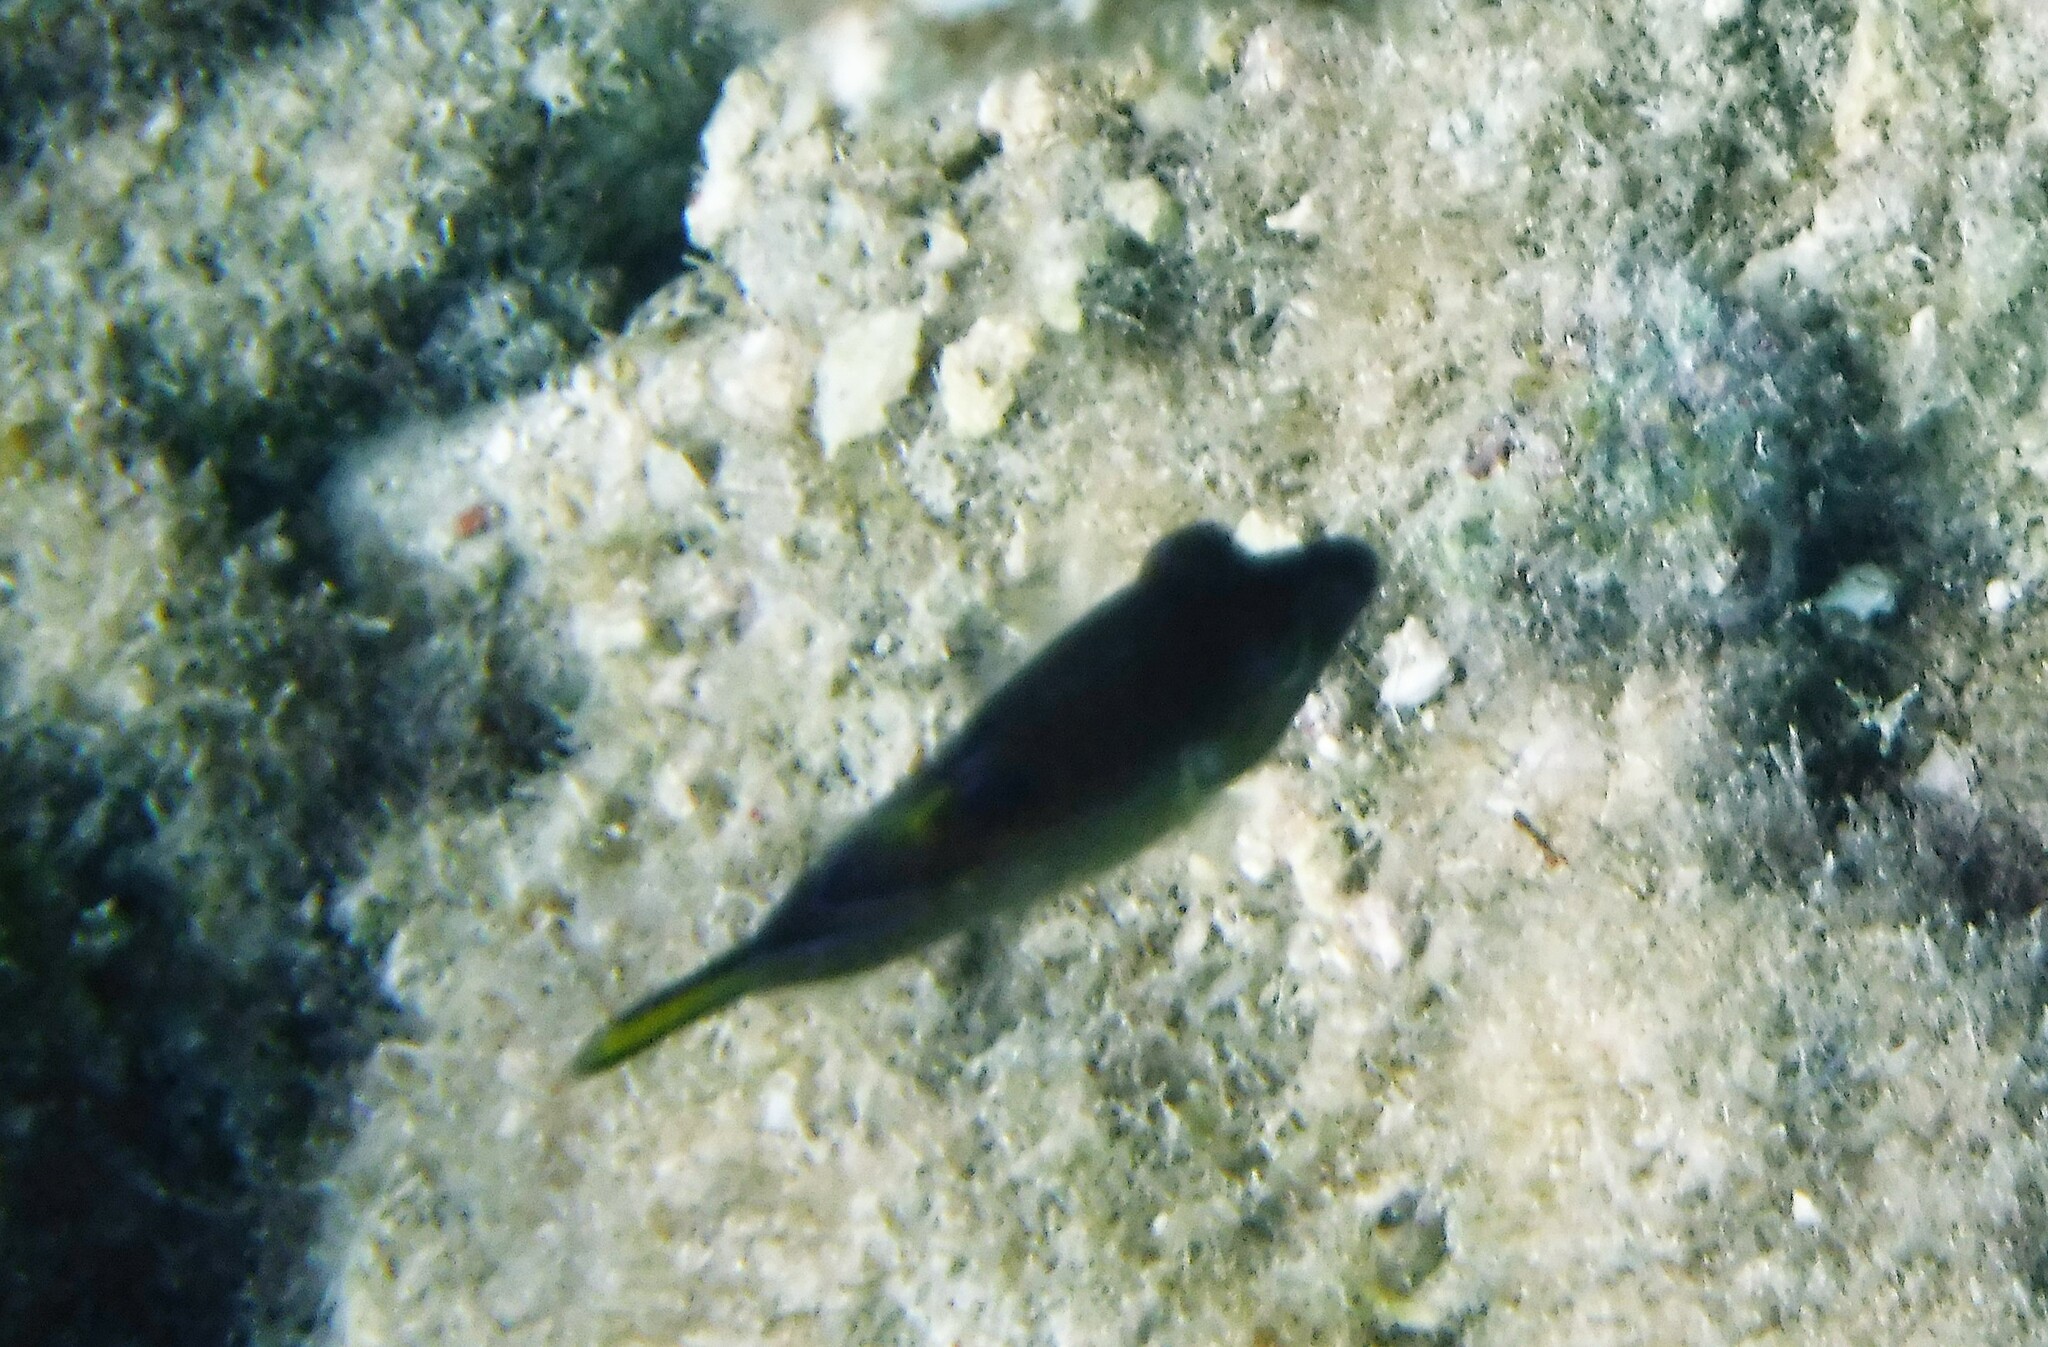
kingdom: Animalia
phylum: Chordata
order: Tetraodontiformes
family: Tetraodontidae
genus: Canthigaster
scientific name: Canthigaster rostrata
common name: Caribbean sharpnose-puffer
